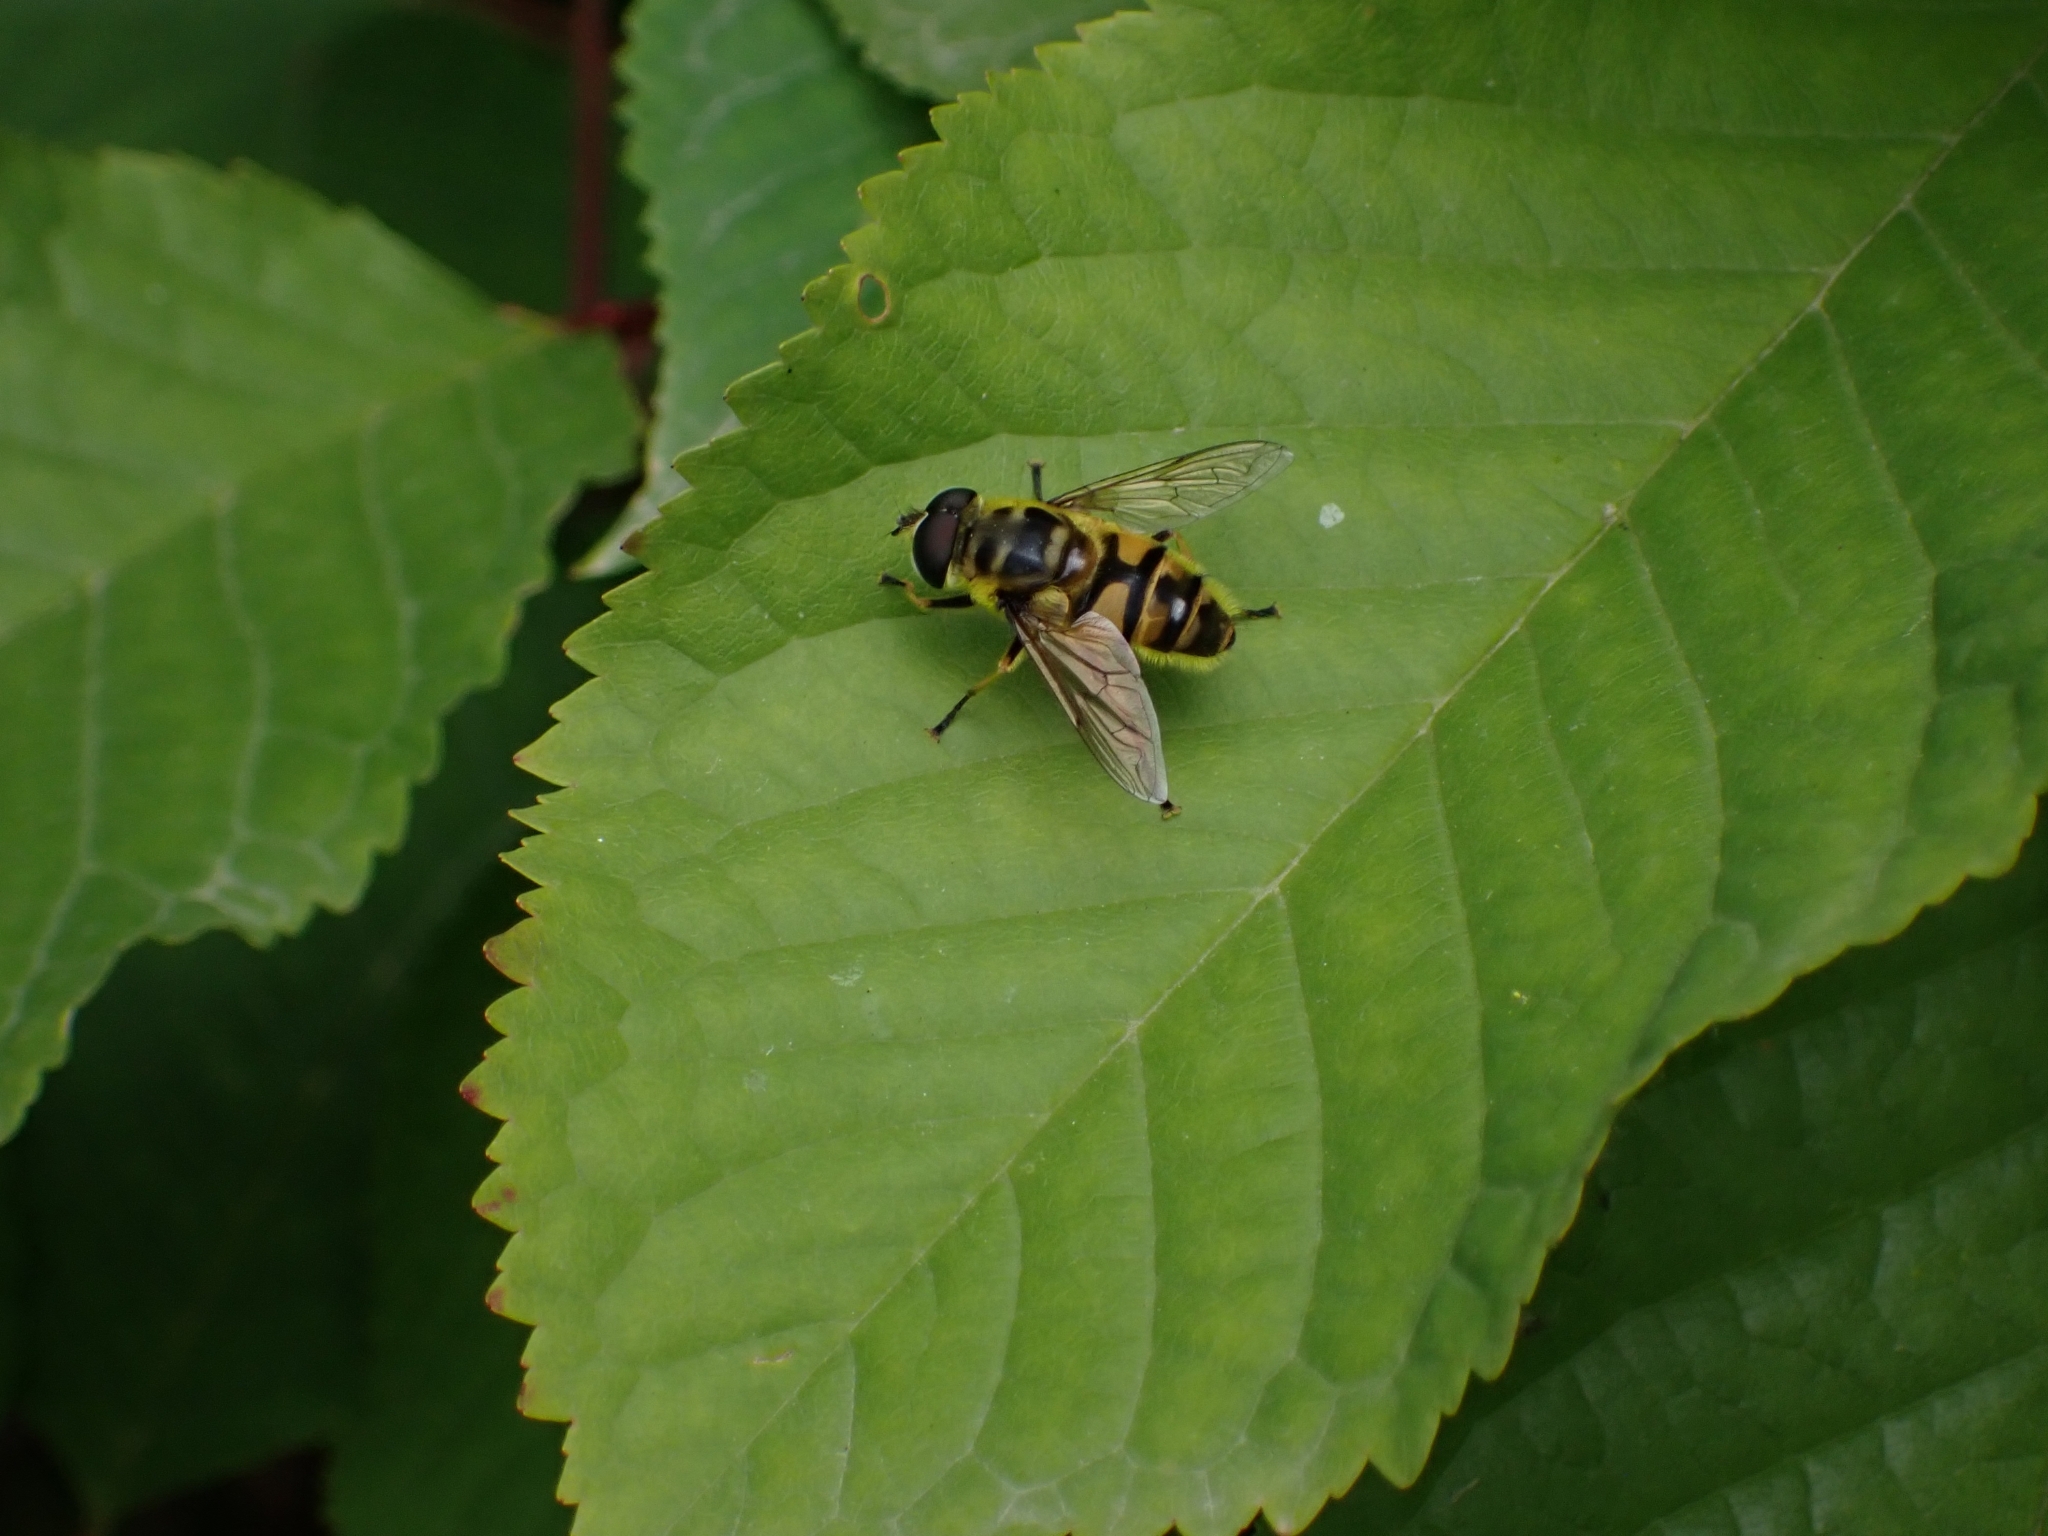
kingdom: Animalia
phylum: Arthropoda
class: Insecta
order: Diptera
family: Syrphidae
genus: Myathropa
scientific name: Myathropa florea
